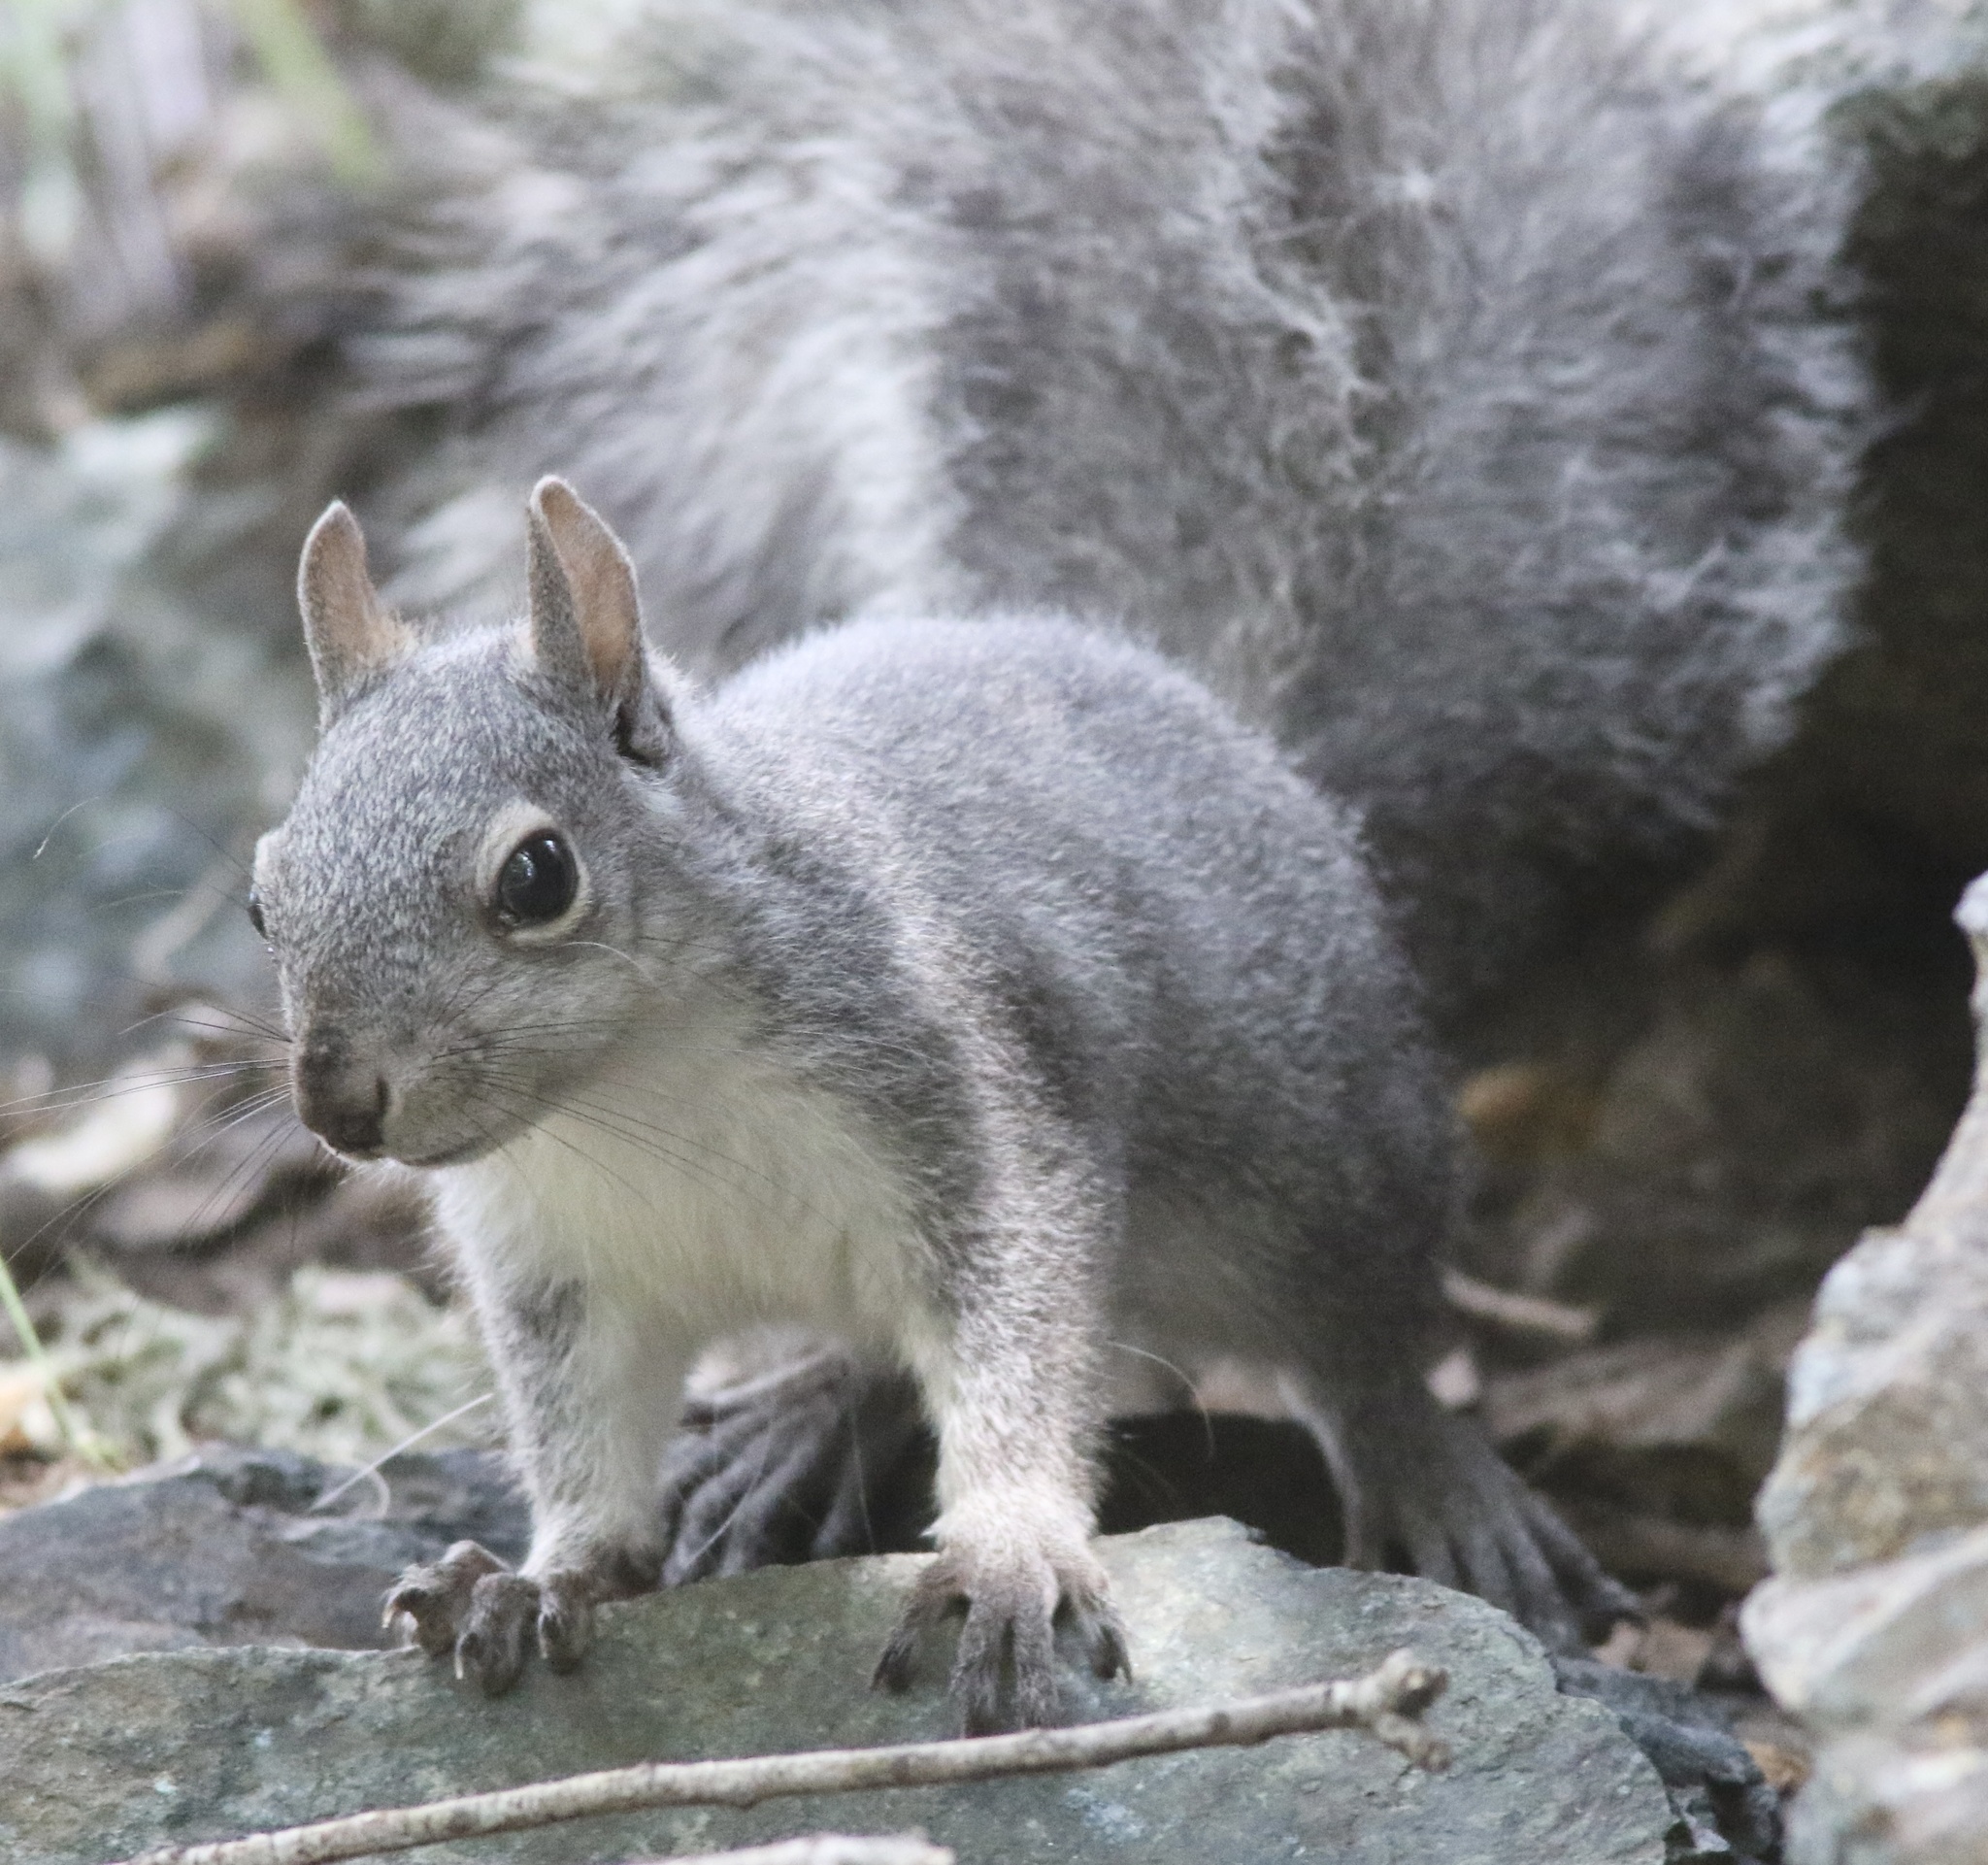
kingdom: Animalia
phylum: Chordata
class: Mammalia
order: Rodentia
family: Sciuridae
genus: Sciurus
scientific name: Sciurus griseus
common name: Western gray squirrel
